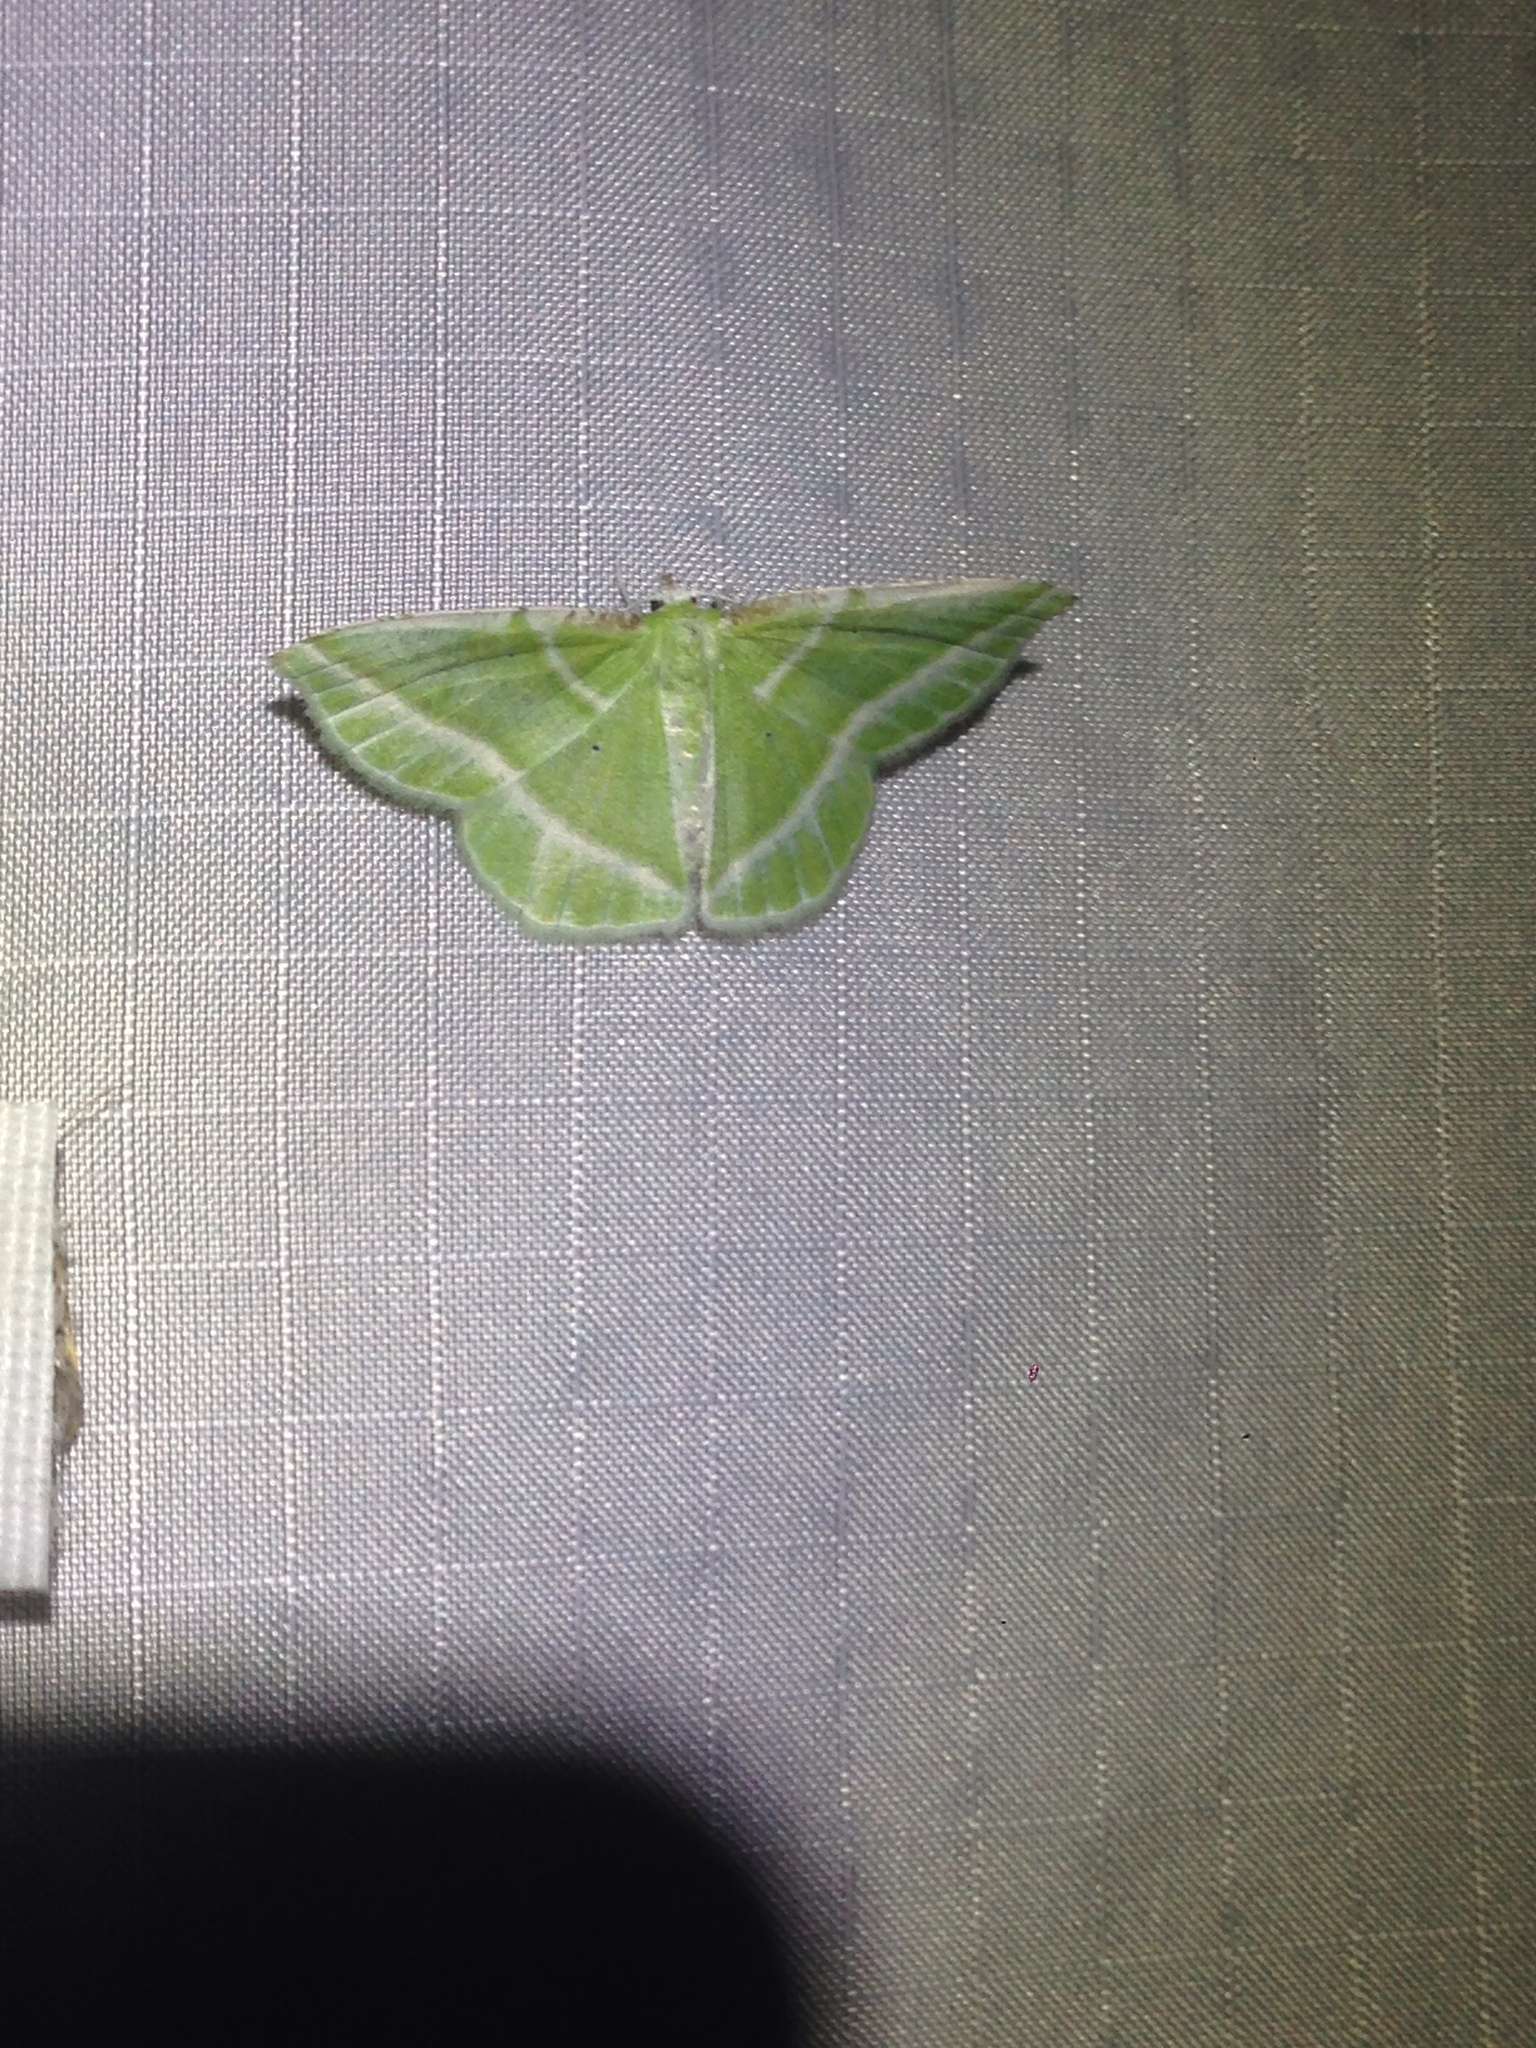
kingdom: Animalia
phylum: Arthropoda
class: Insecta
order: Lepidoptera
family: Geometridae
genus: Dichorda
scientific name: Dichorda iridaria
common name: Showy emerald
